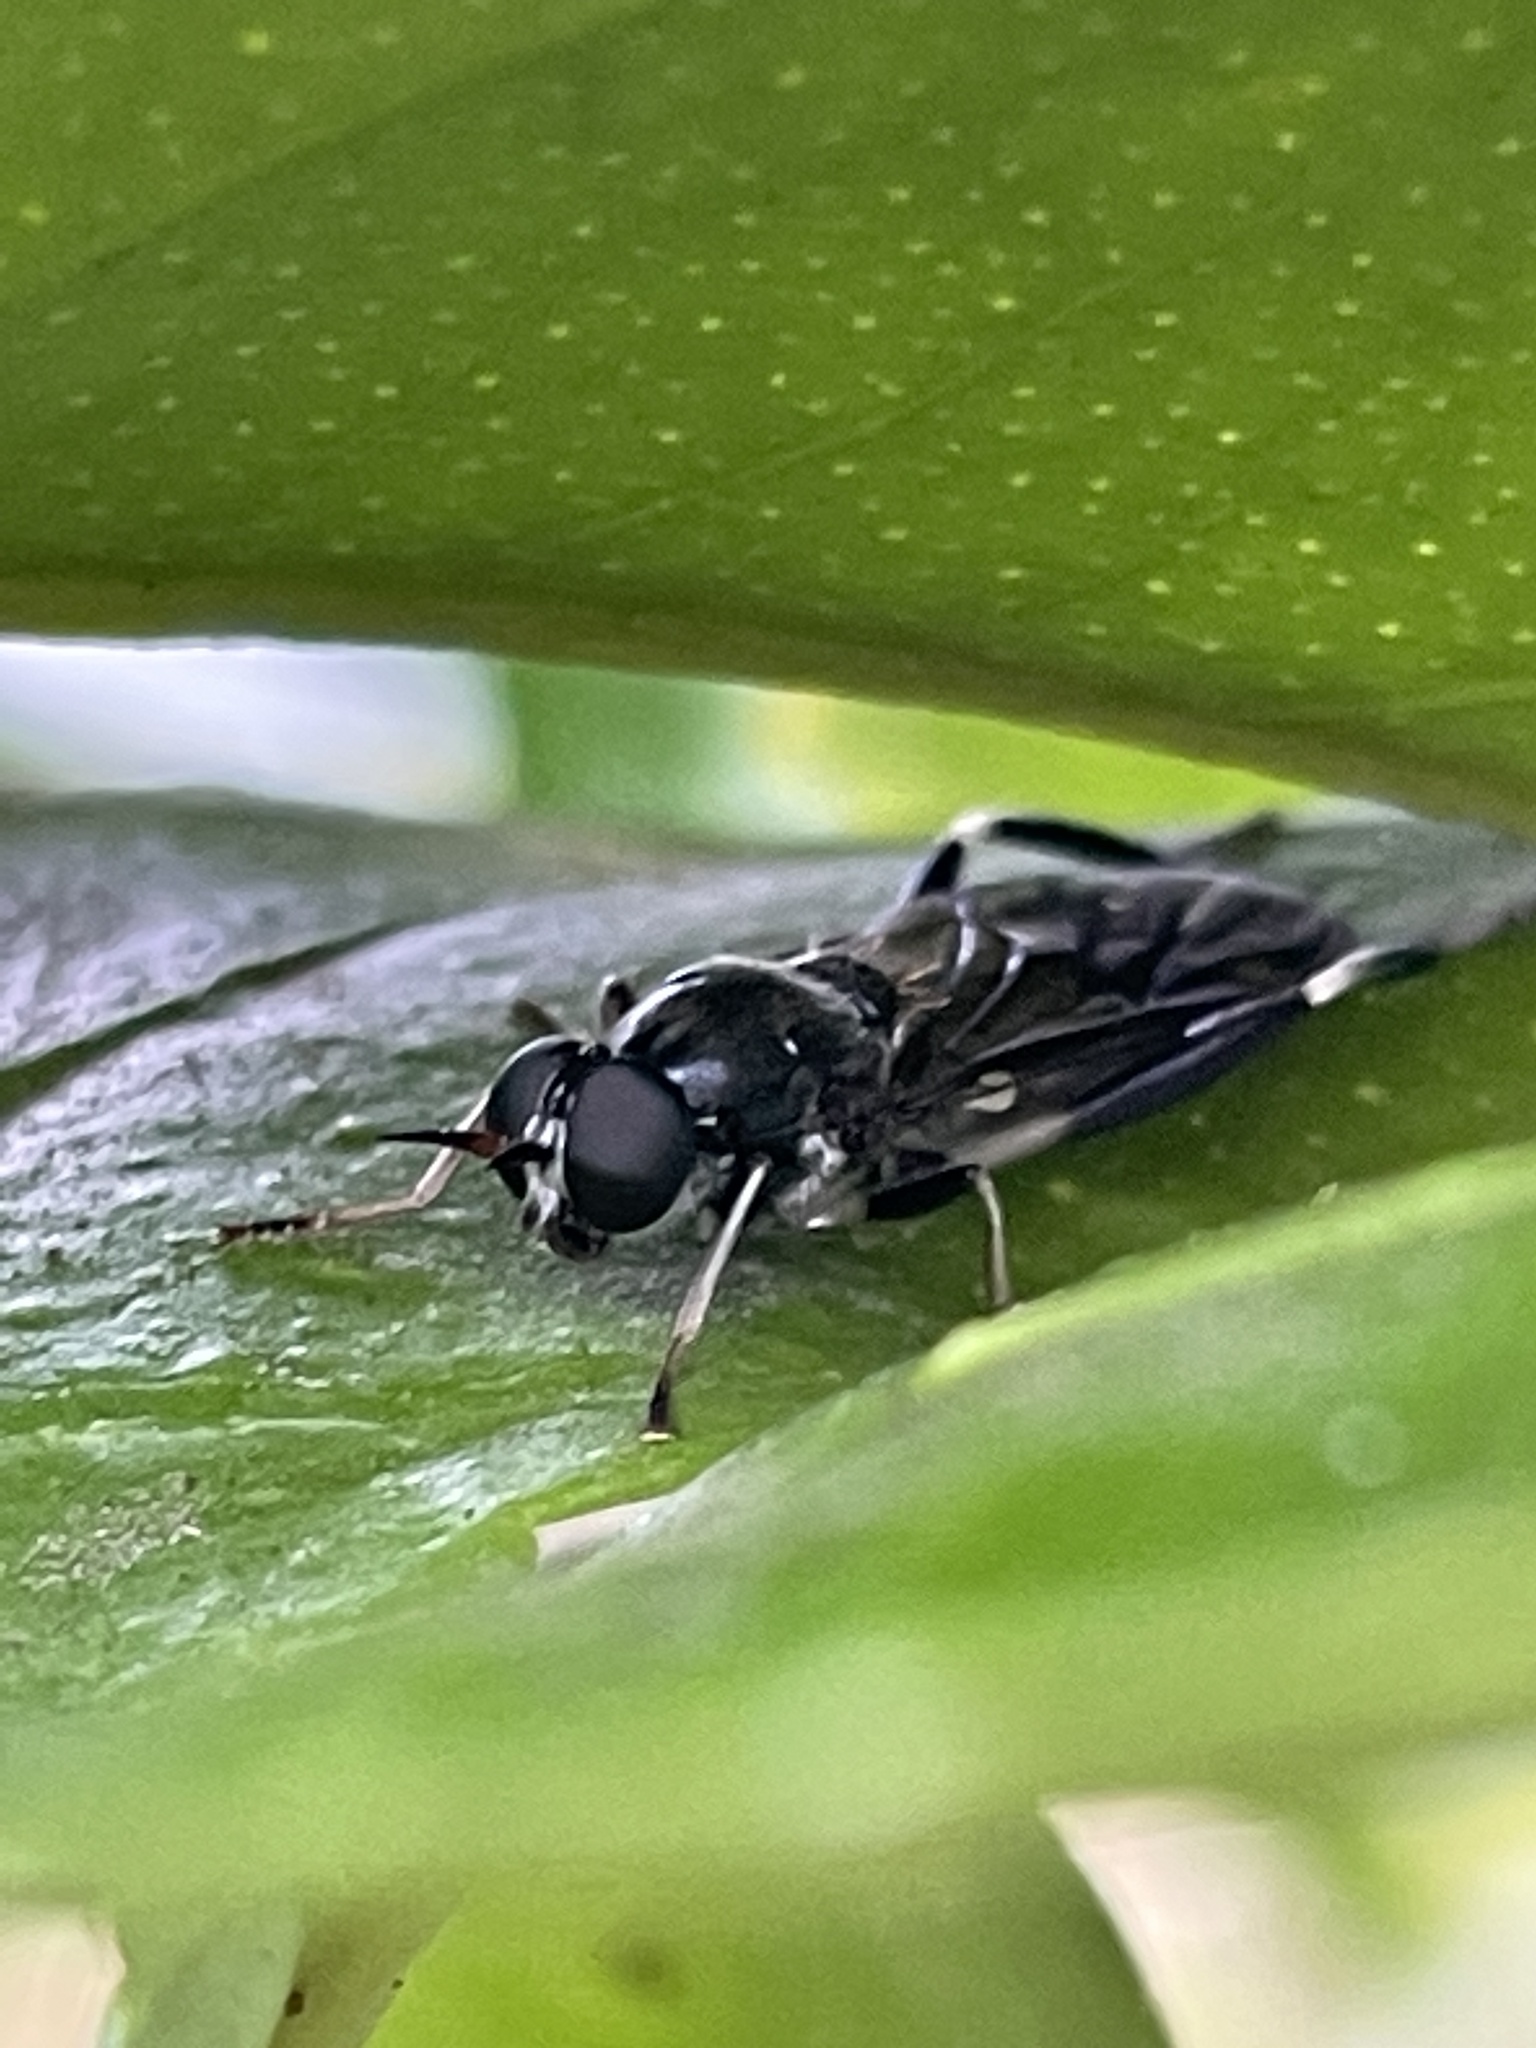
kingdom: Animalia
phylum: Arthropoda
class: Insecta
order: Diptera
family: Stratiomyidae
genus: Exaireta
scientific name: Exaireta spinigera
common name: Blue soldier fly
